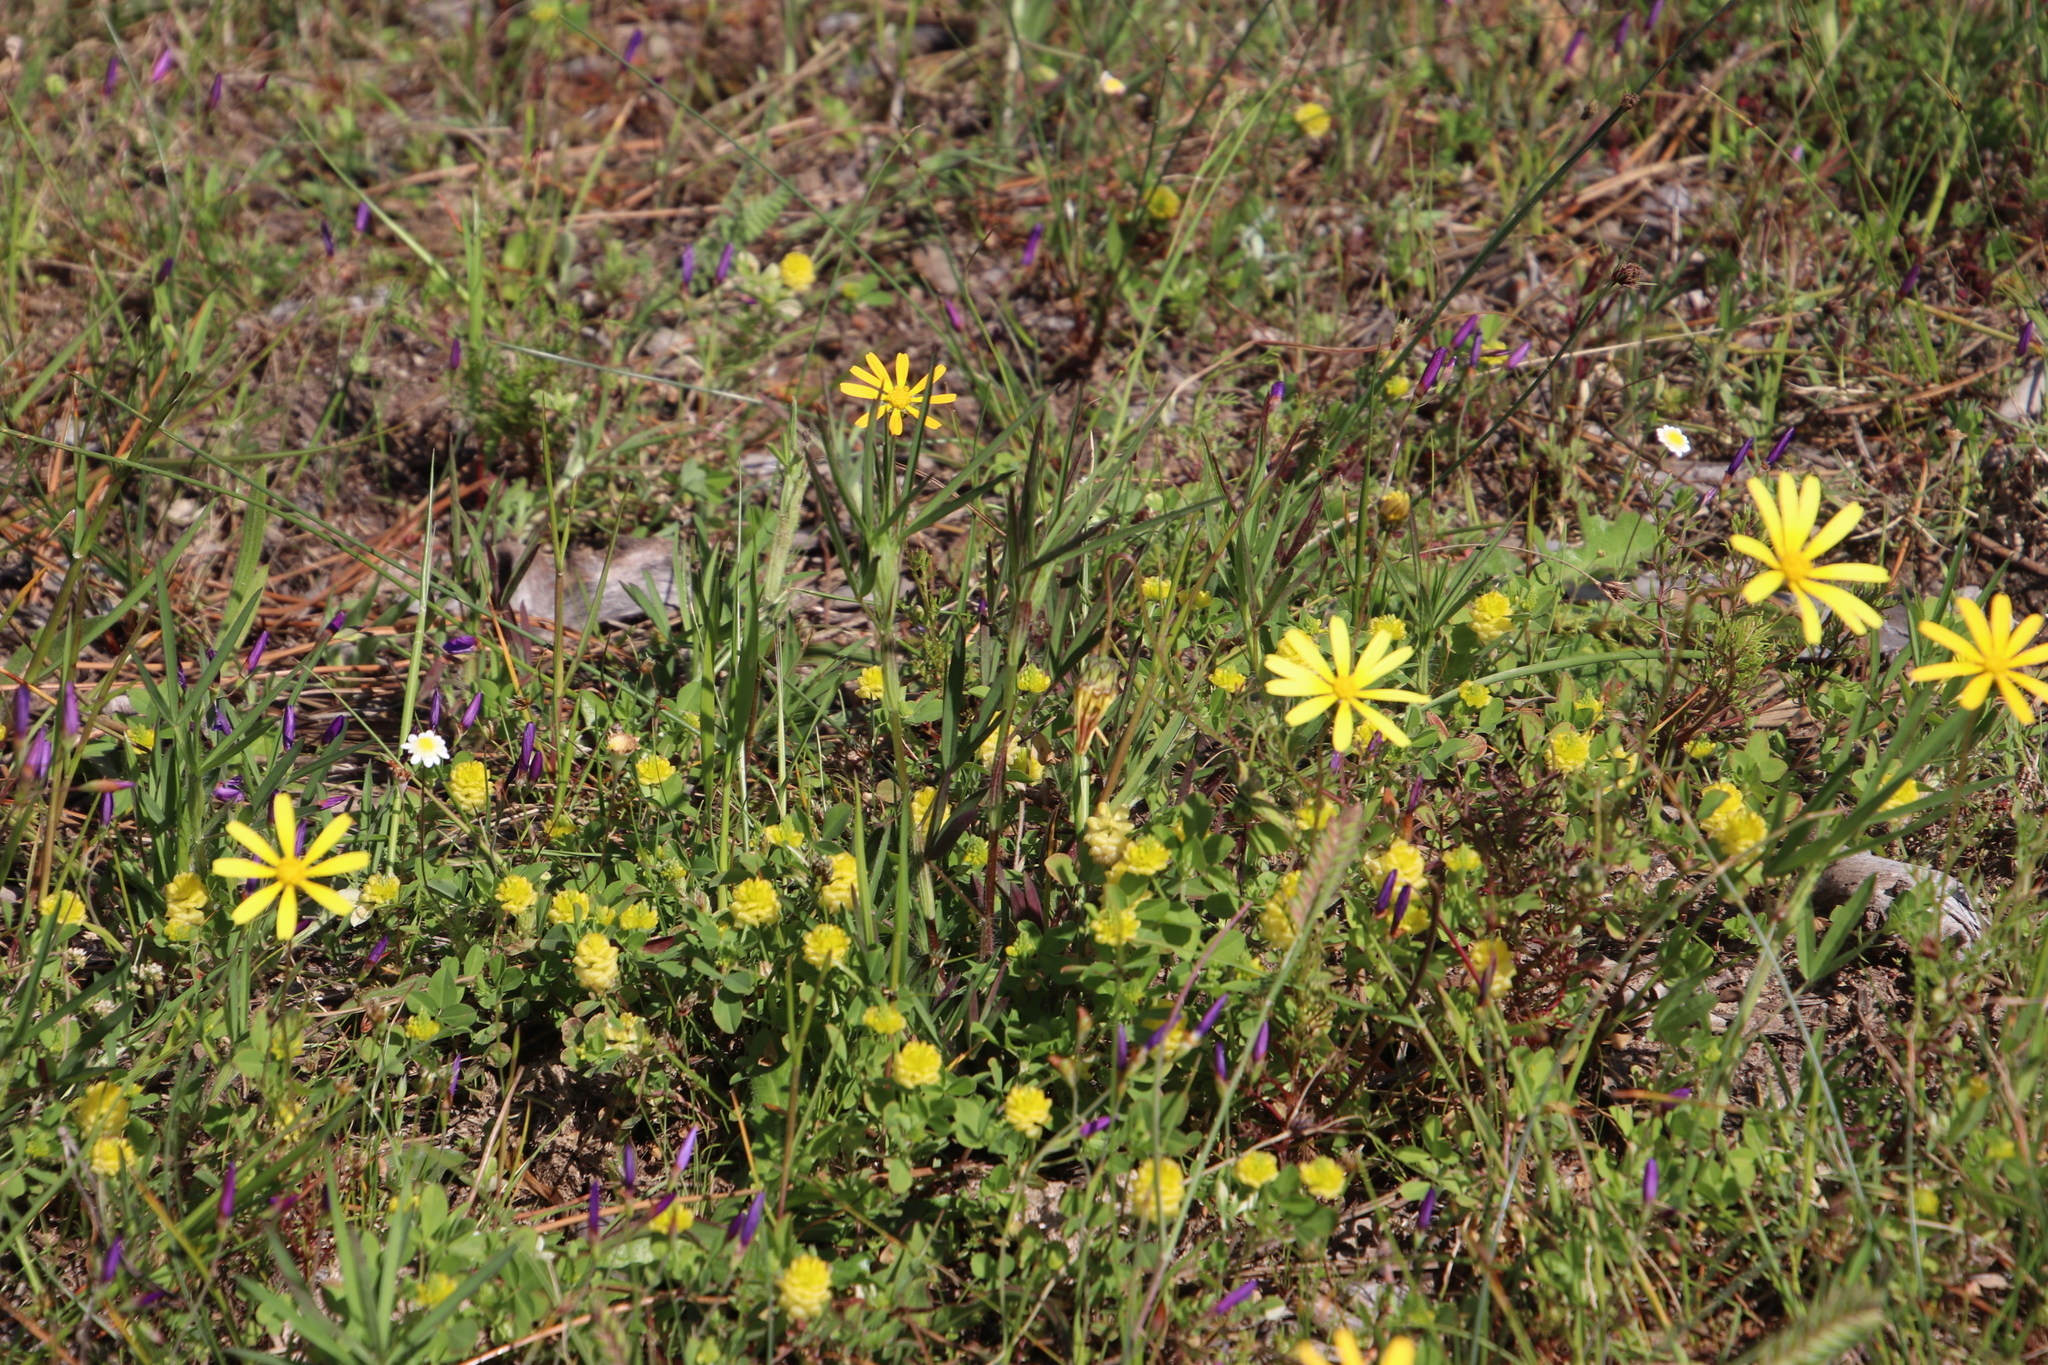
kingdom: Plantae
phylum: Tracheophyta
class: Magnoliopsida
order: Fabales
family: Fabaceae
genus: Trifolium
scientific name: Trifolium angustifolium
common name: Narrow clover
